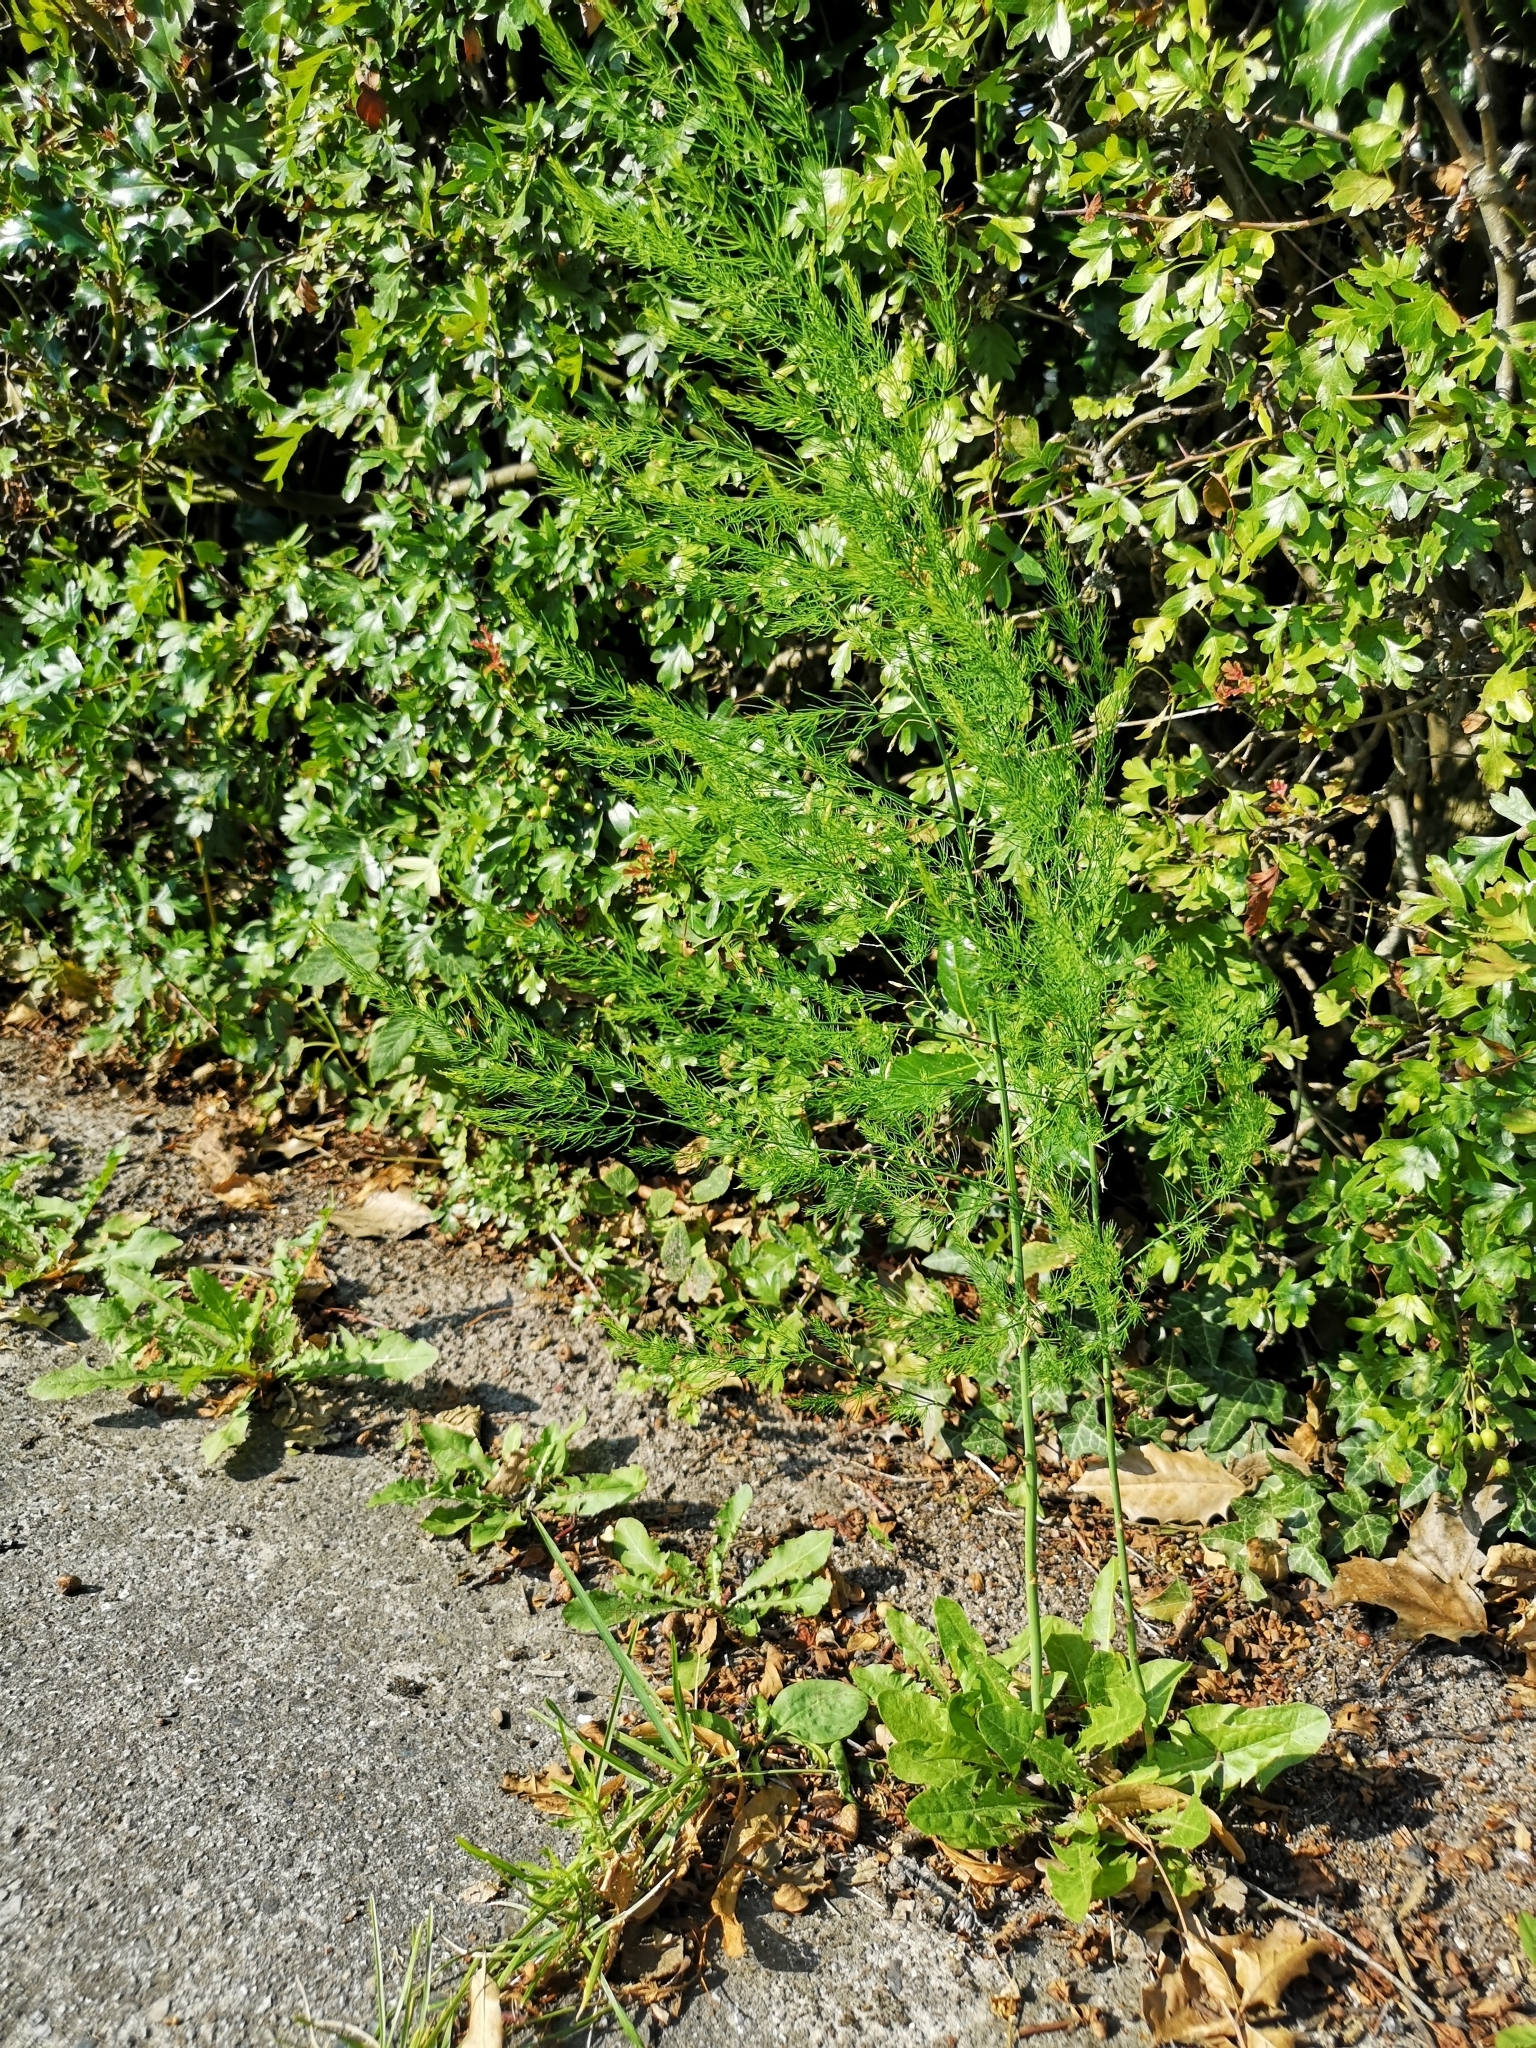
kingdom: Plantae
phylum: Tracheophyta
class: Liliopsida
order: Asparagales
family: Asparagaceae
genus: Asparagus
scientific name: Asparagus officinalis
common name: Garden asparagus
